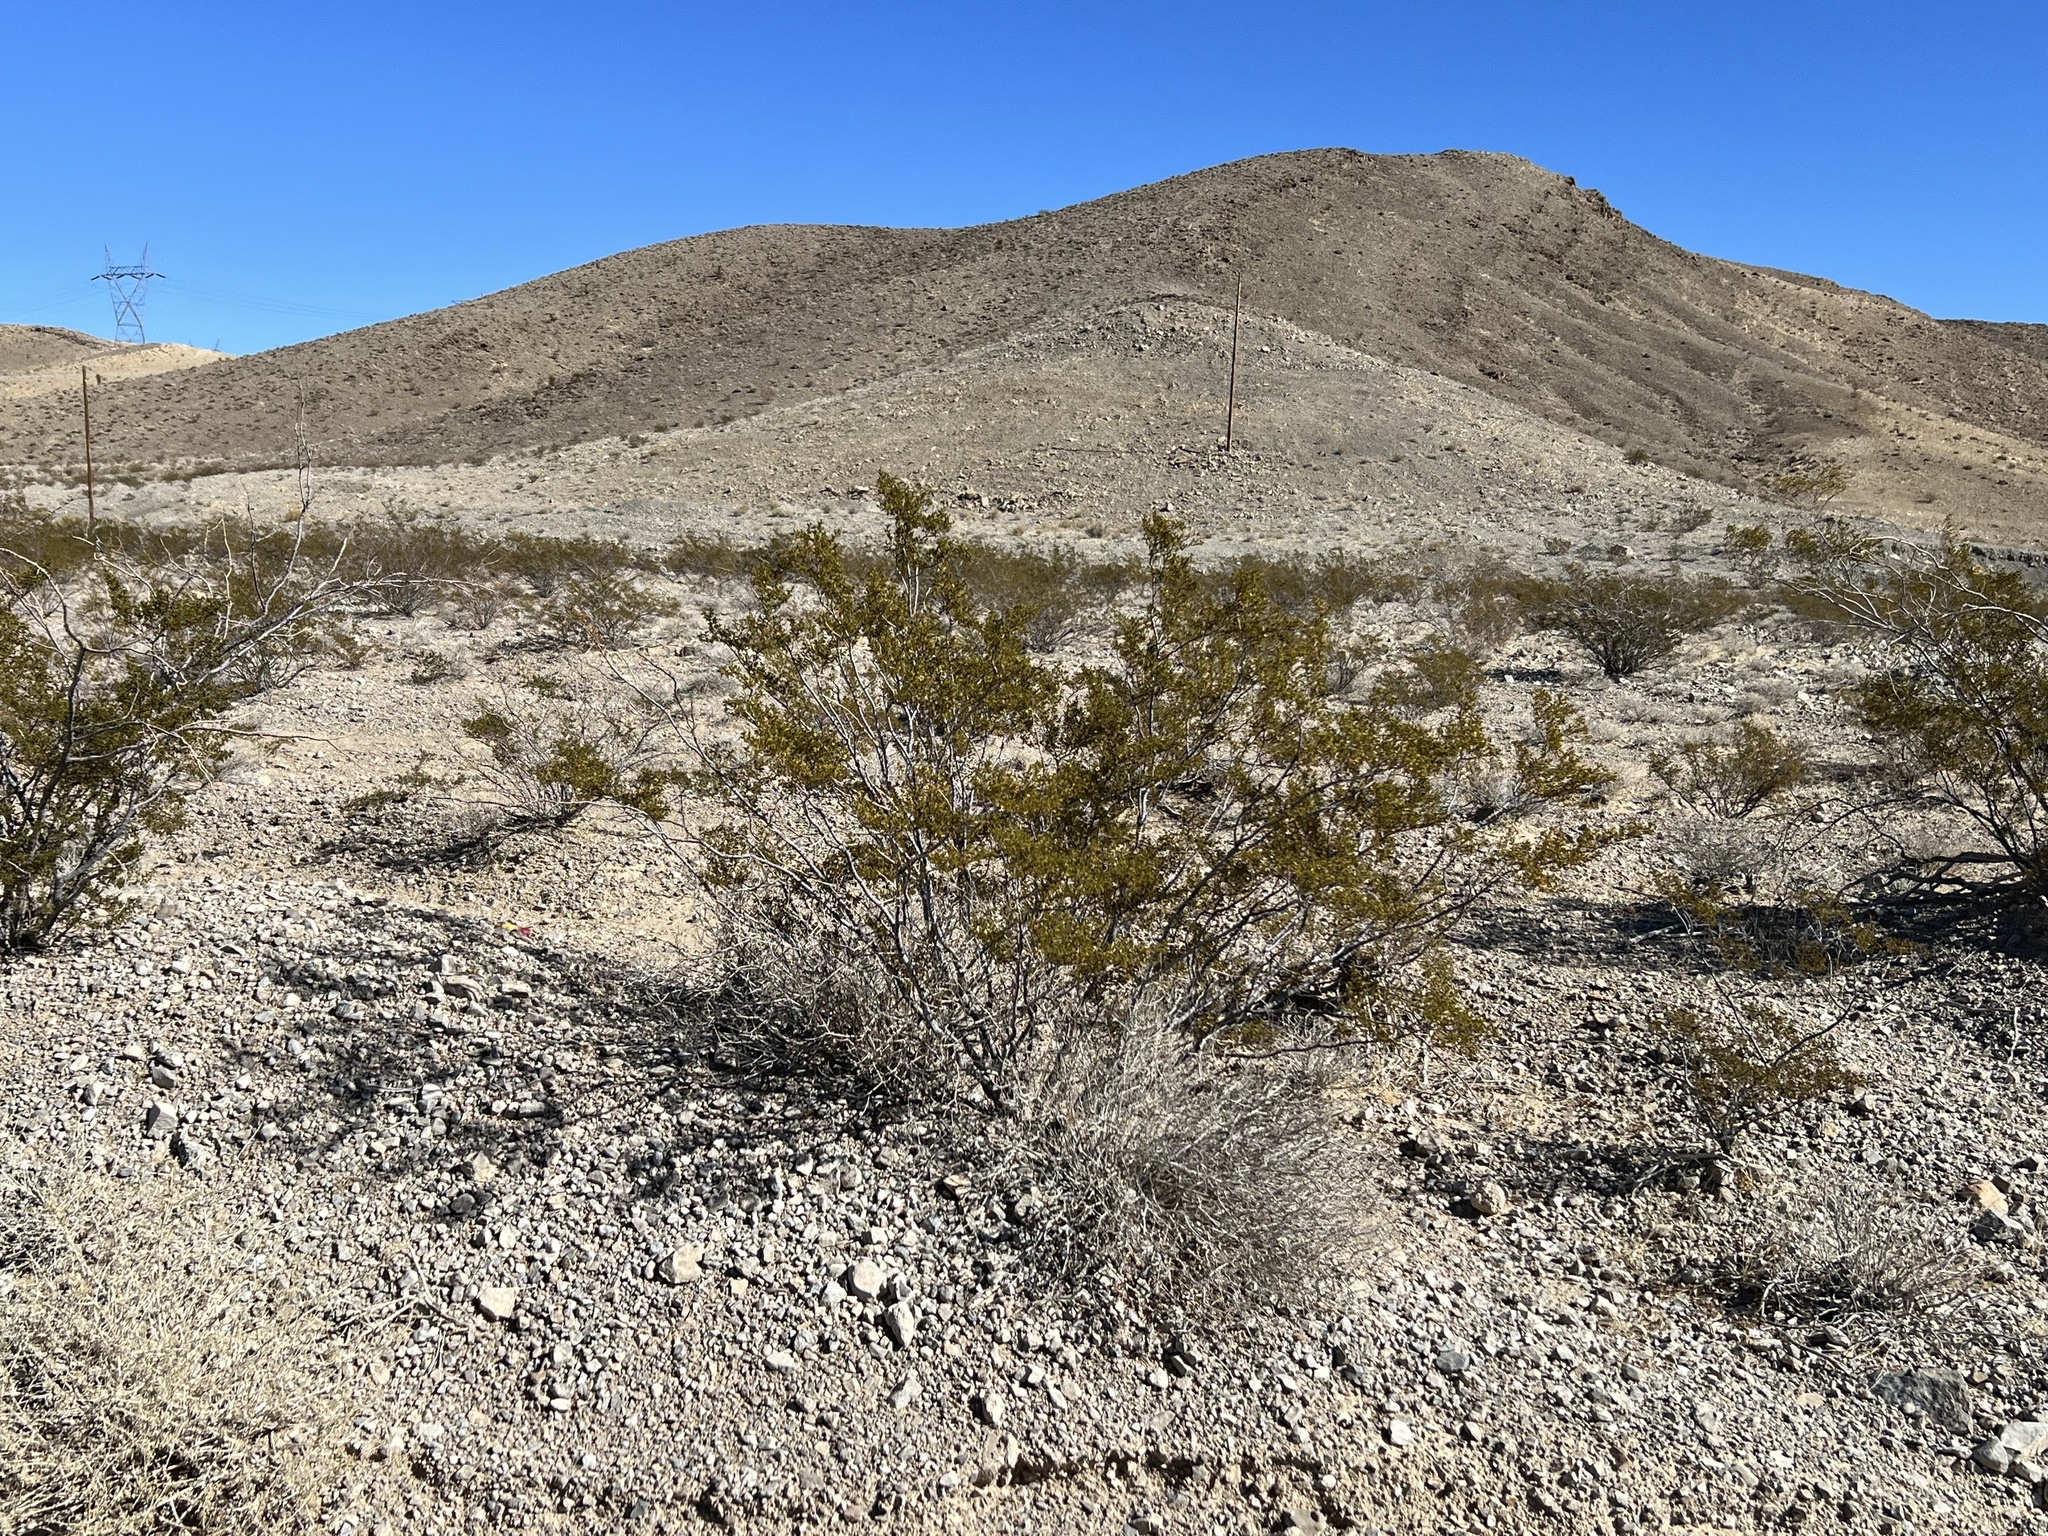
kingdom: Plantae
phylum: Tracheophyta
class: Magnoliopsida
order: Zygophyllales
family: Zygophyllaceae
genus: Larrea
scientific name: Larrea tridentata
